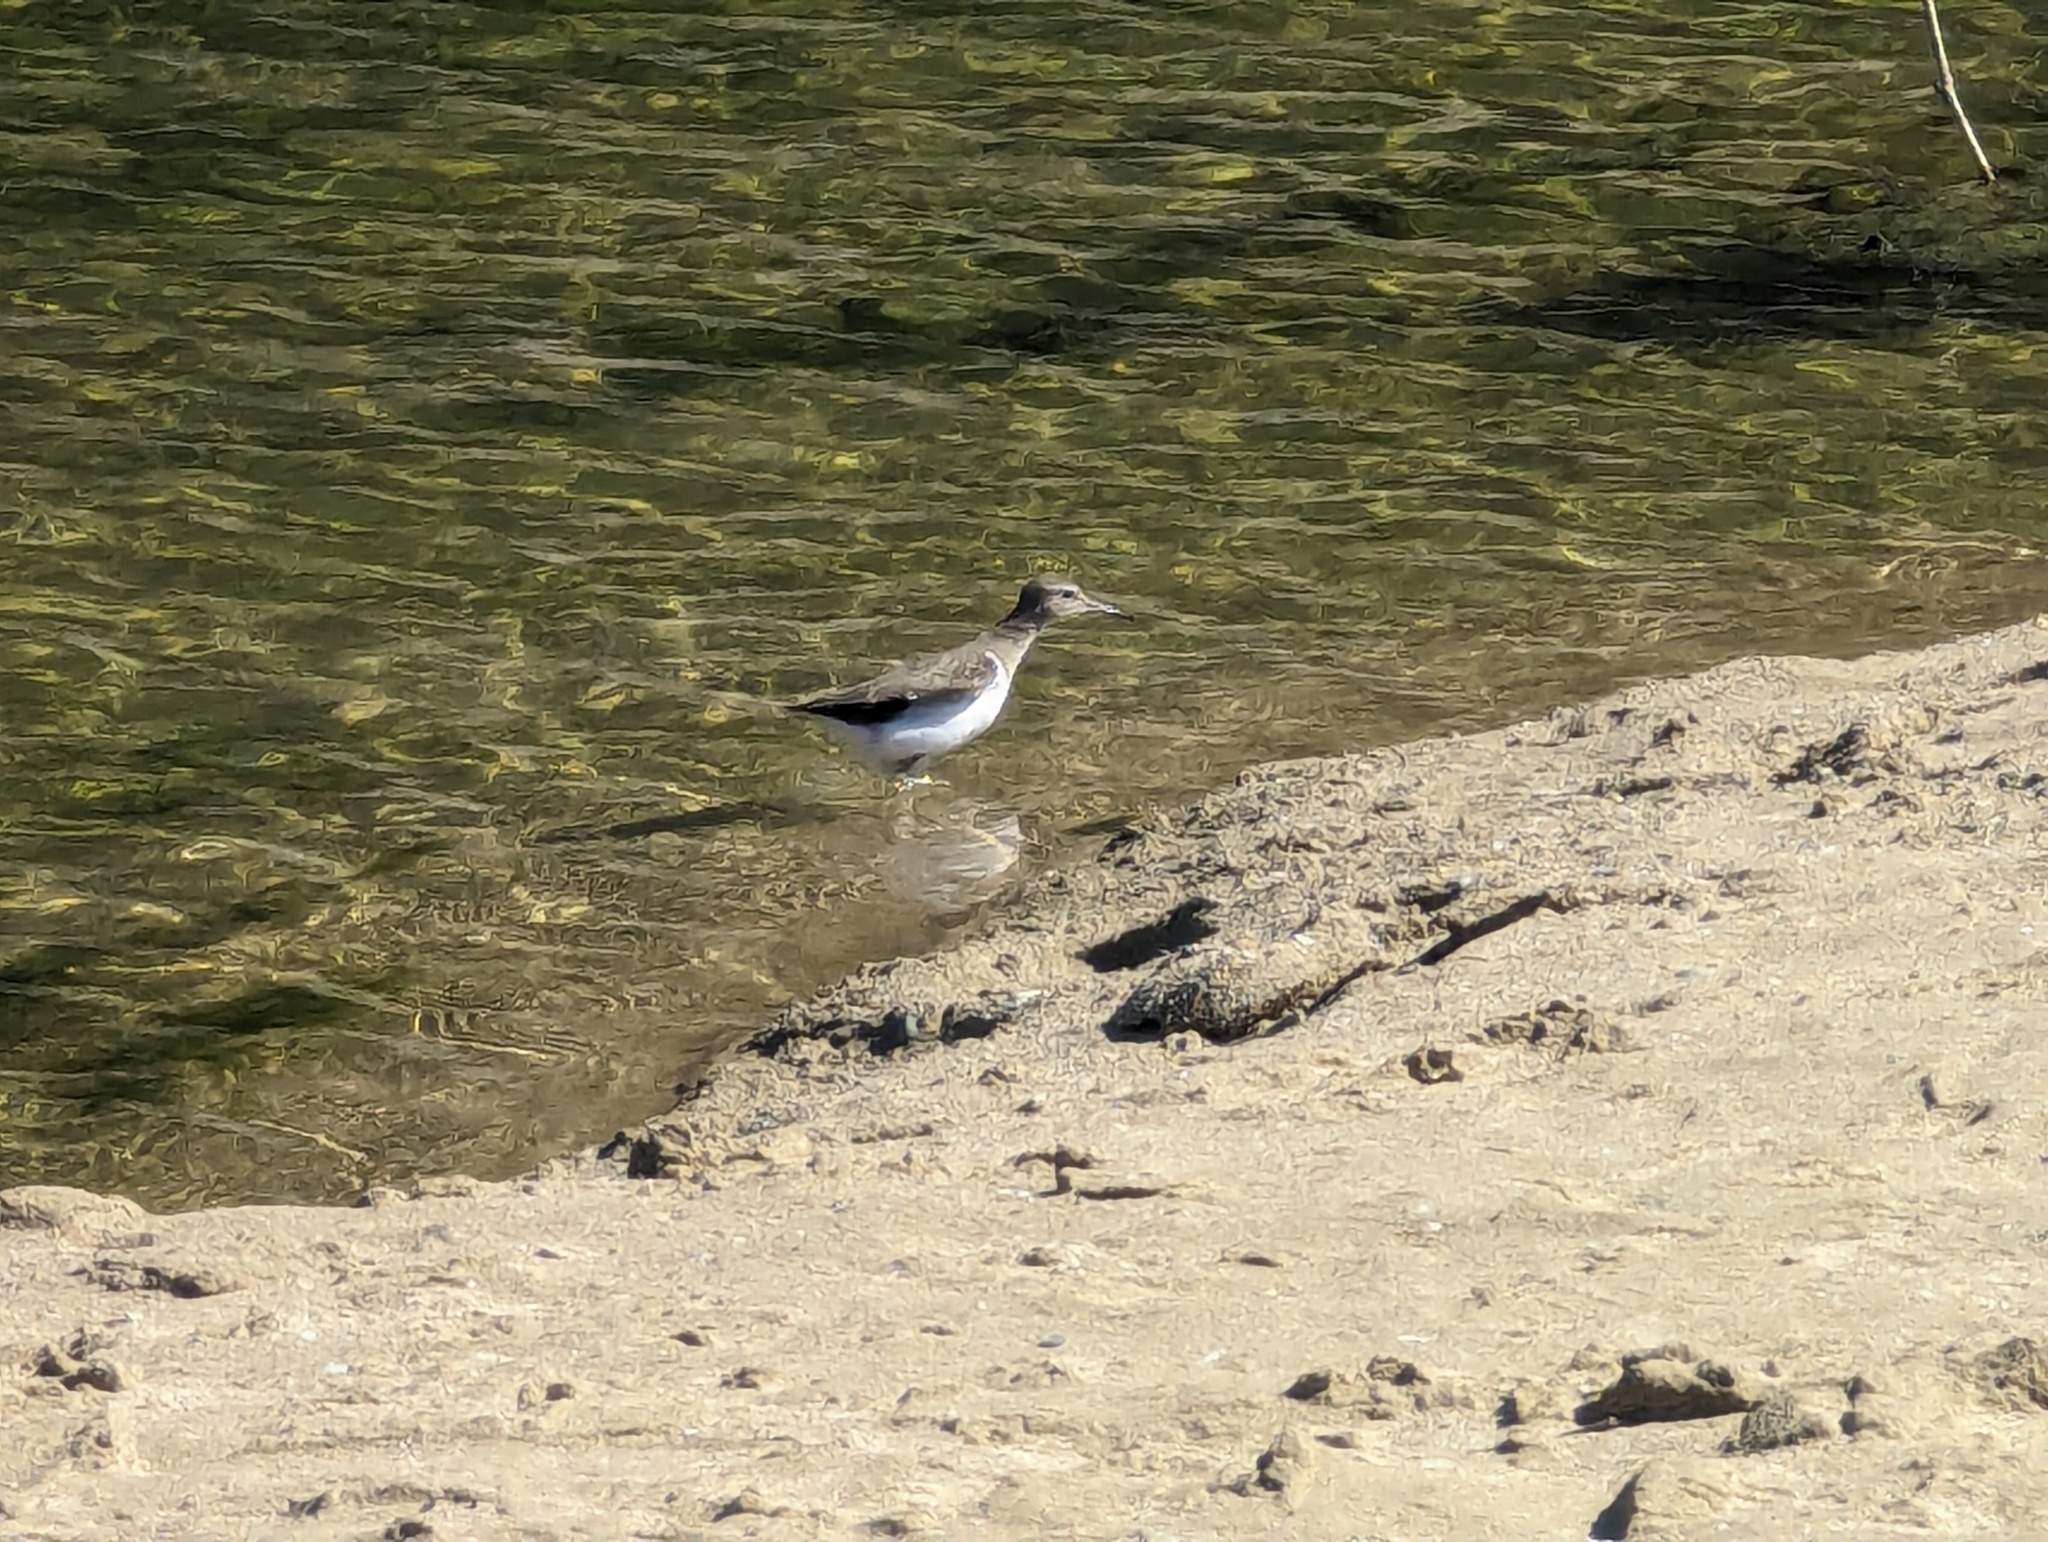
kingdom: Animalia
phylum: Chordata
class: Aves
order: Charadriiformes
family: Scolopacidae
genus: Actitis
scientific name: Actitis hypoleucos
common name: Common sandpiper
